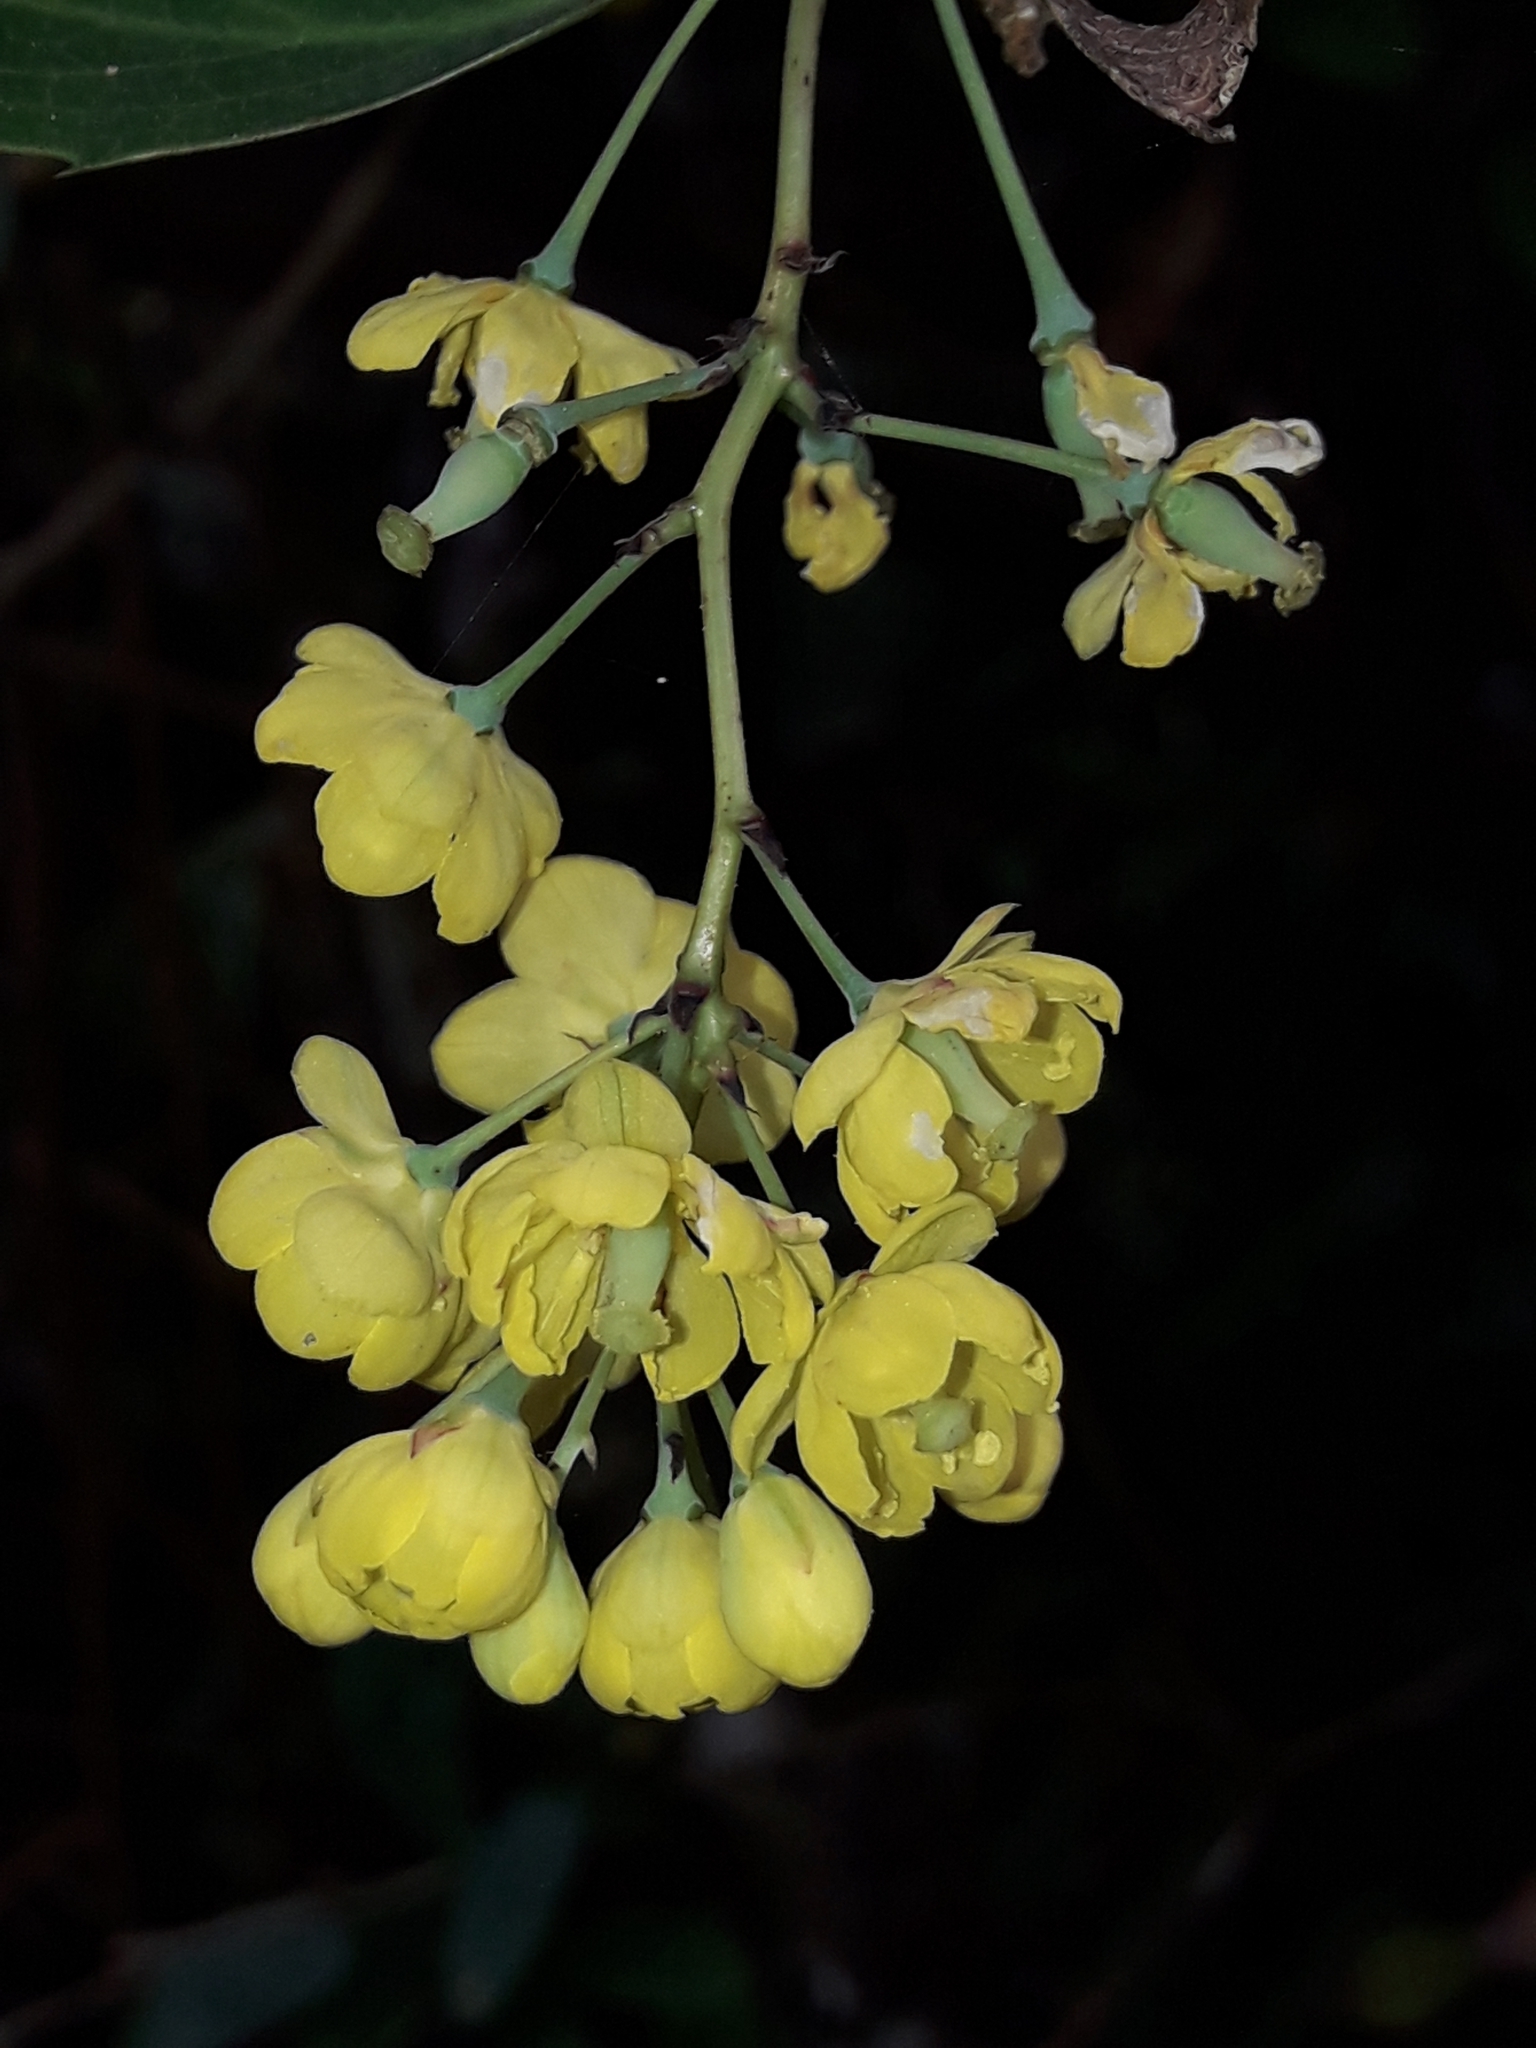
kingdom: Plantae
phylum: Tracheophyta
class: Magnoliopsida
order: Ranunculales
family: Berberidaceae
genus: Berberis
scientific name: Berberis glaucocarpa
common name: Great barberry
